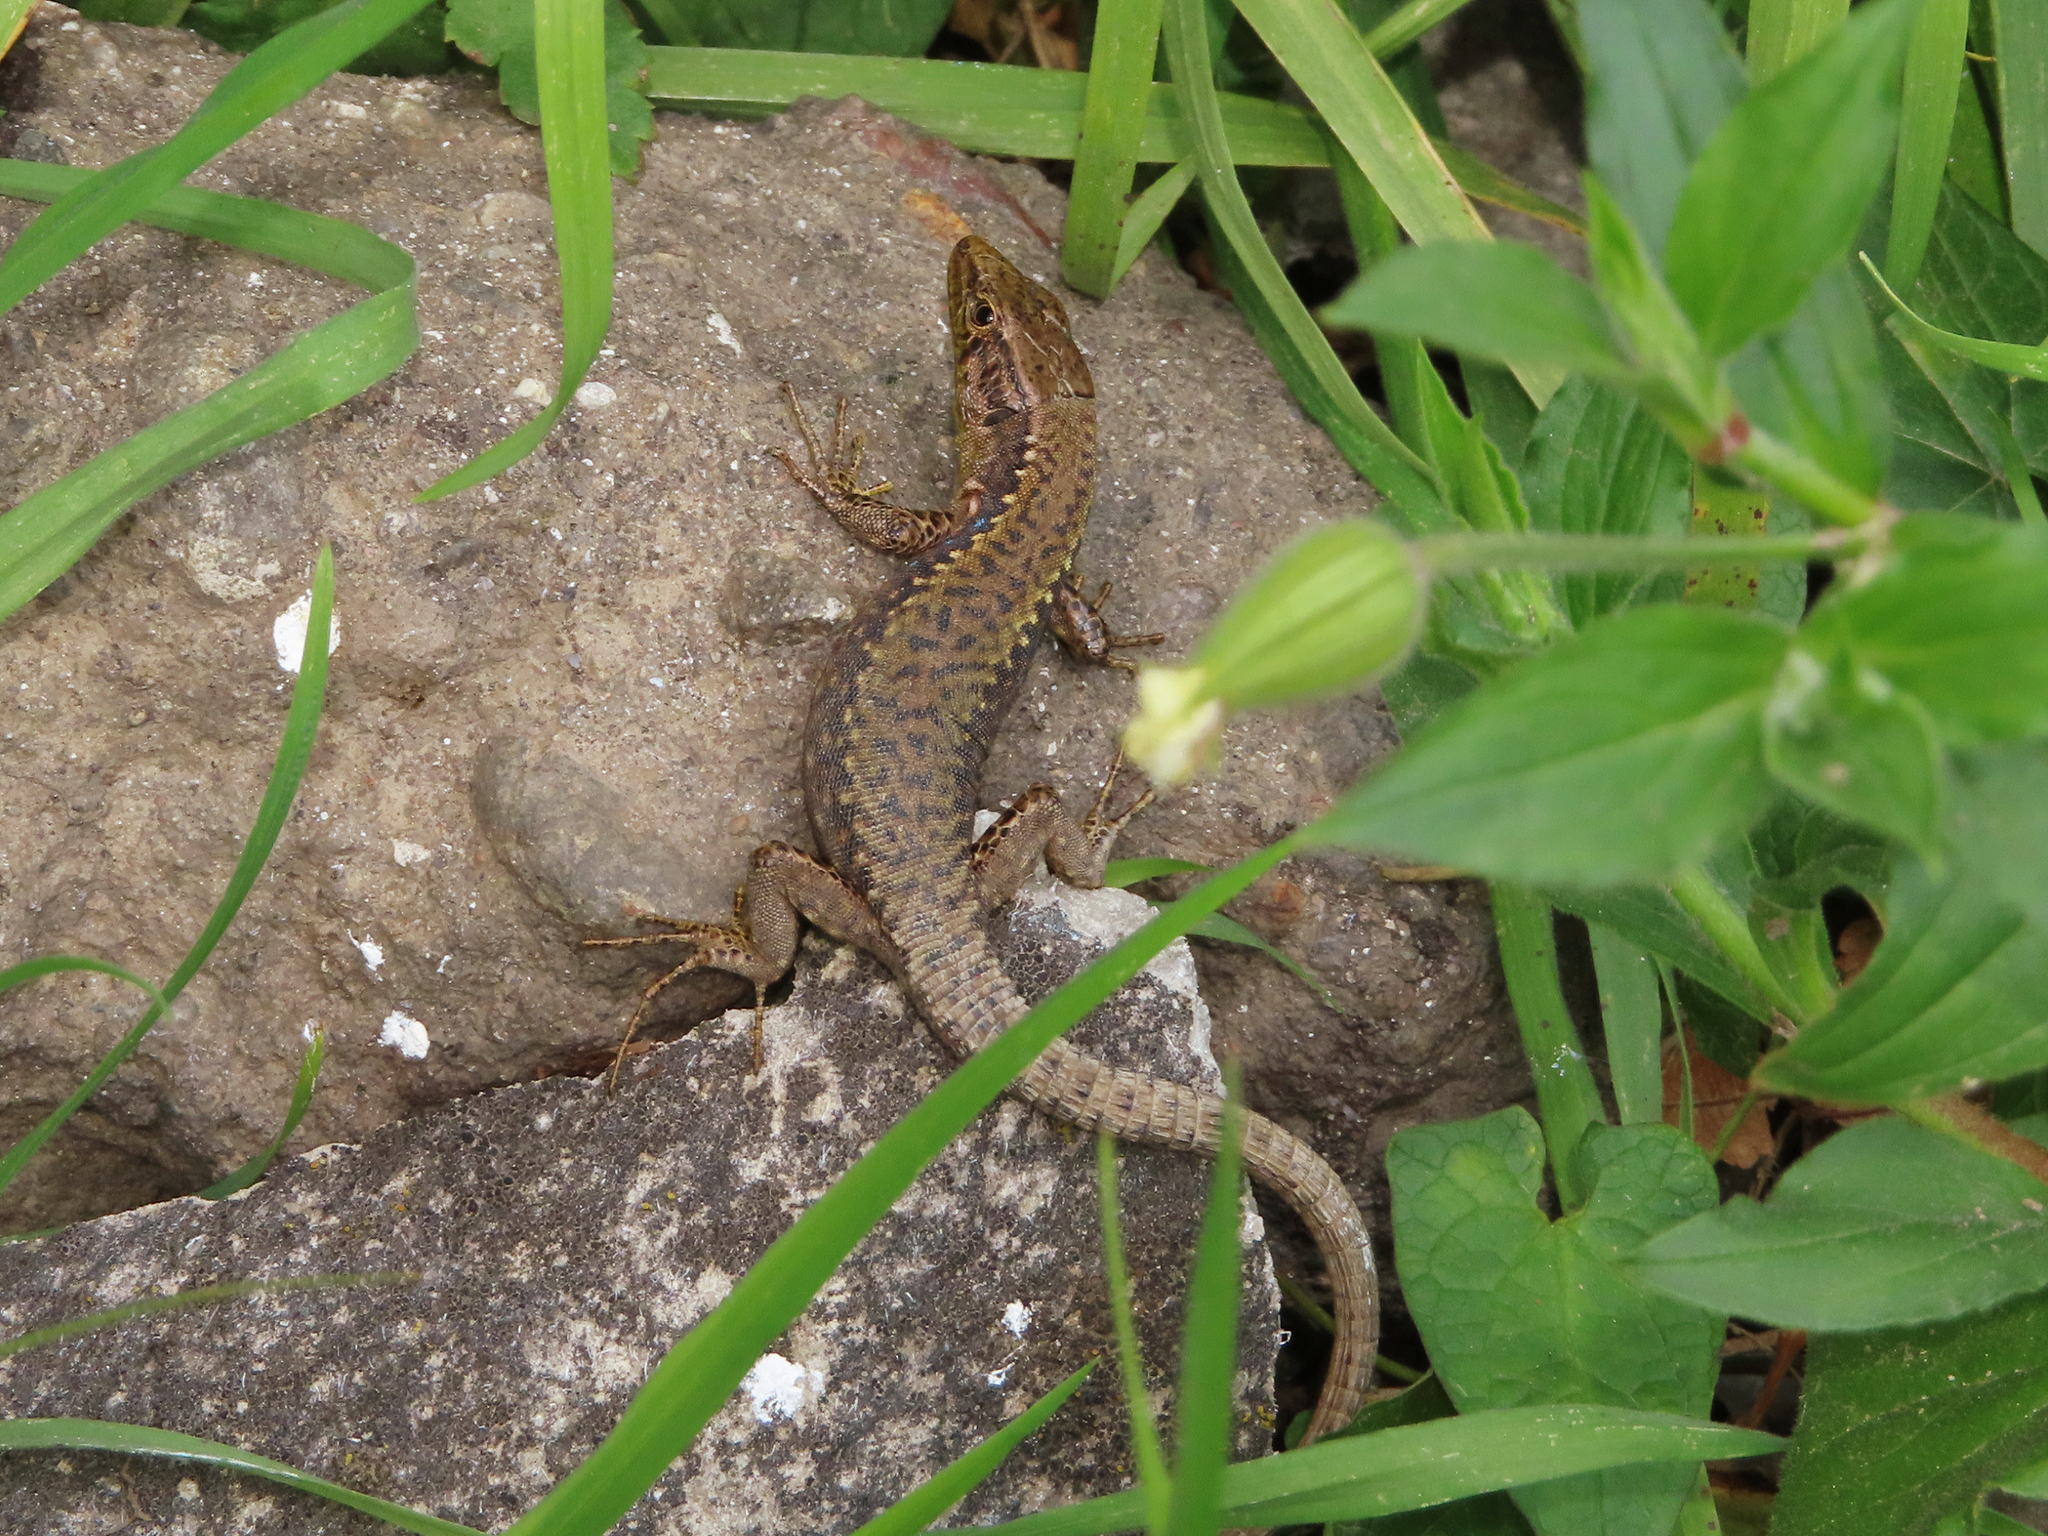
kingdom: Animalia
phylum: Chordata
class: Squamata
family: Lacertidae
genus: Darevskia
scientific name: Darevskia mixta
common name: Ajarian lizard
